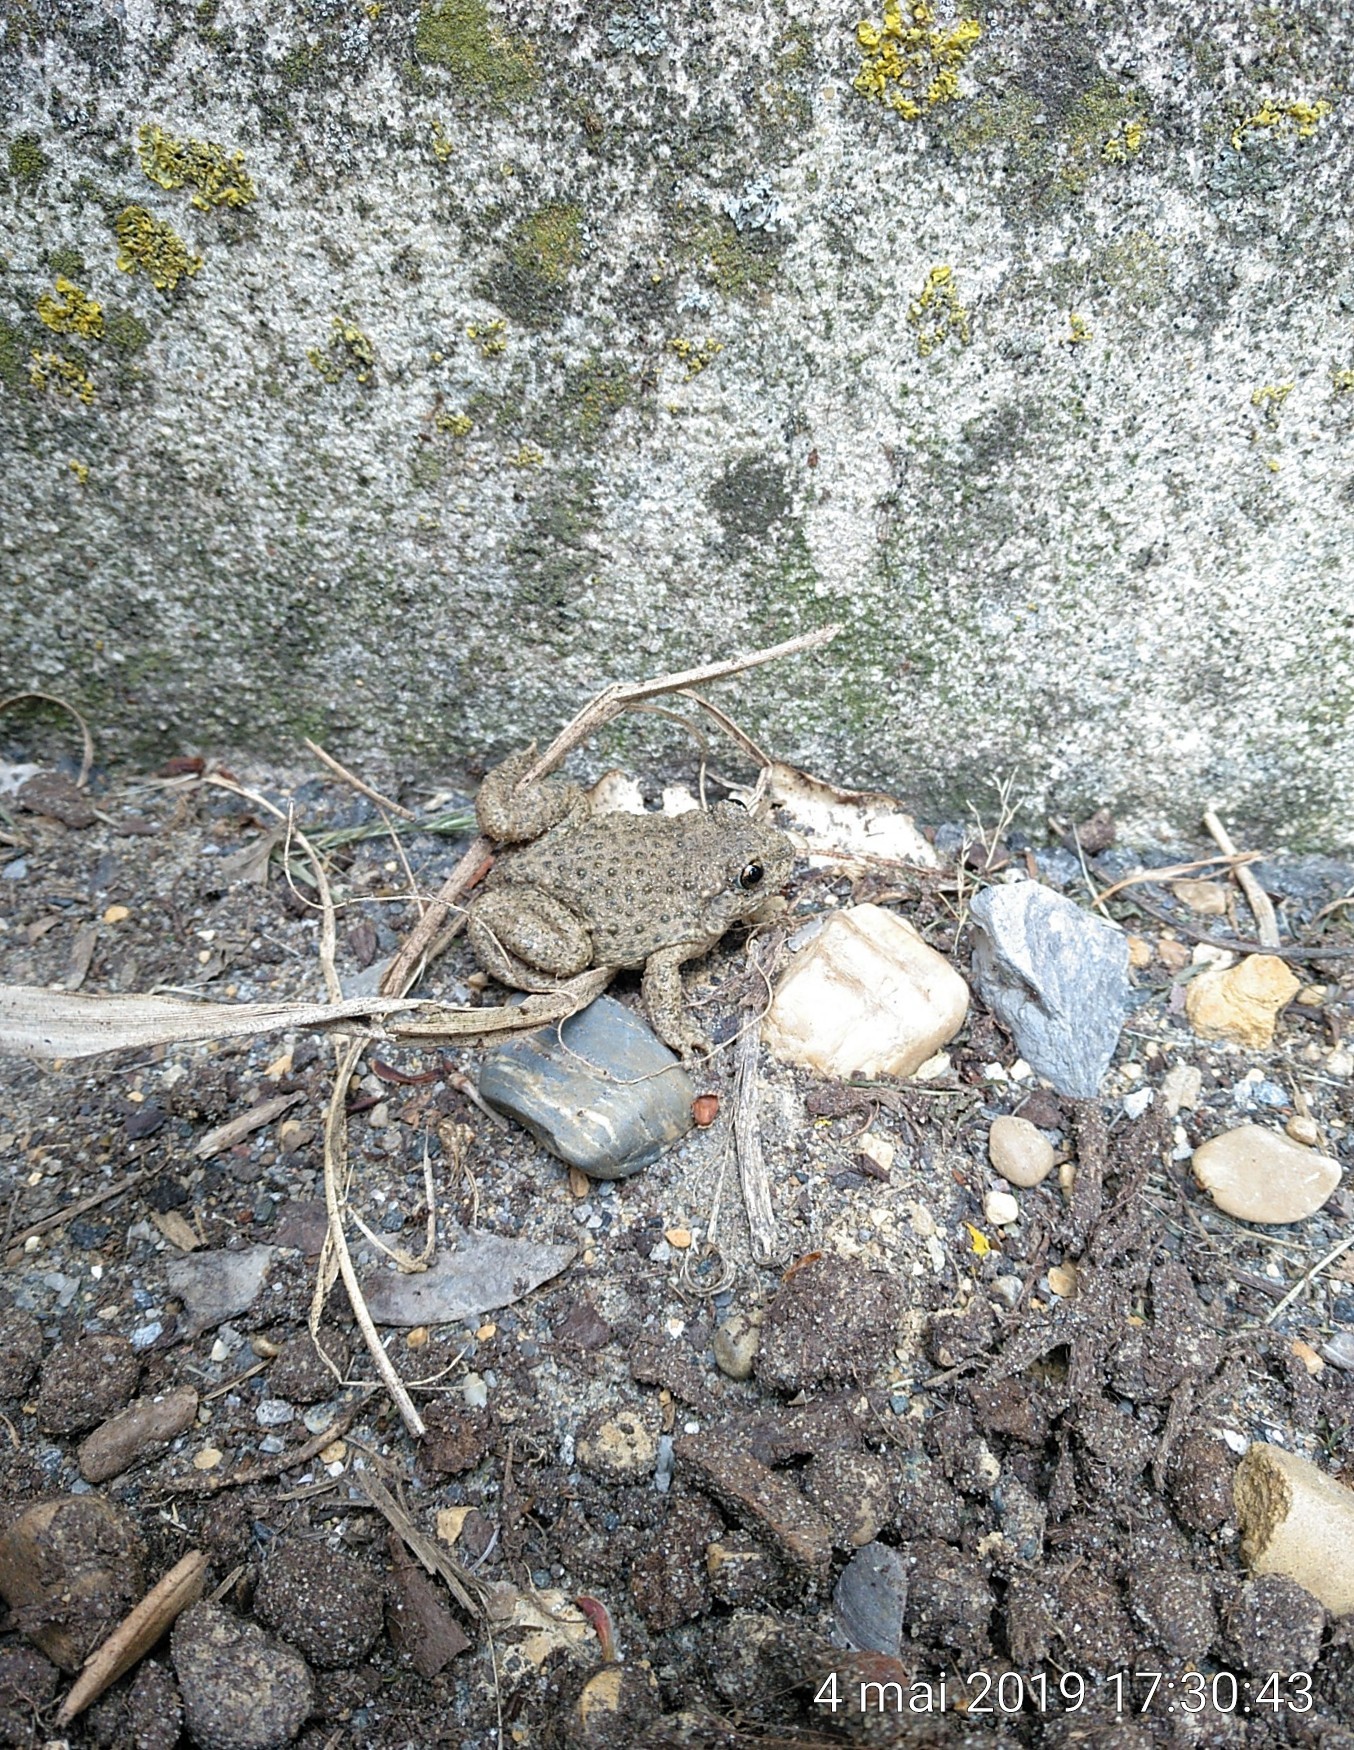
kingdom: Animalia
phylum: Chordata
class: Amphibia
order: Anura
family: Alytidae
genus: Alytes
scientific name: Alytes obstetricans
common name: Midwife toad
